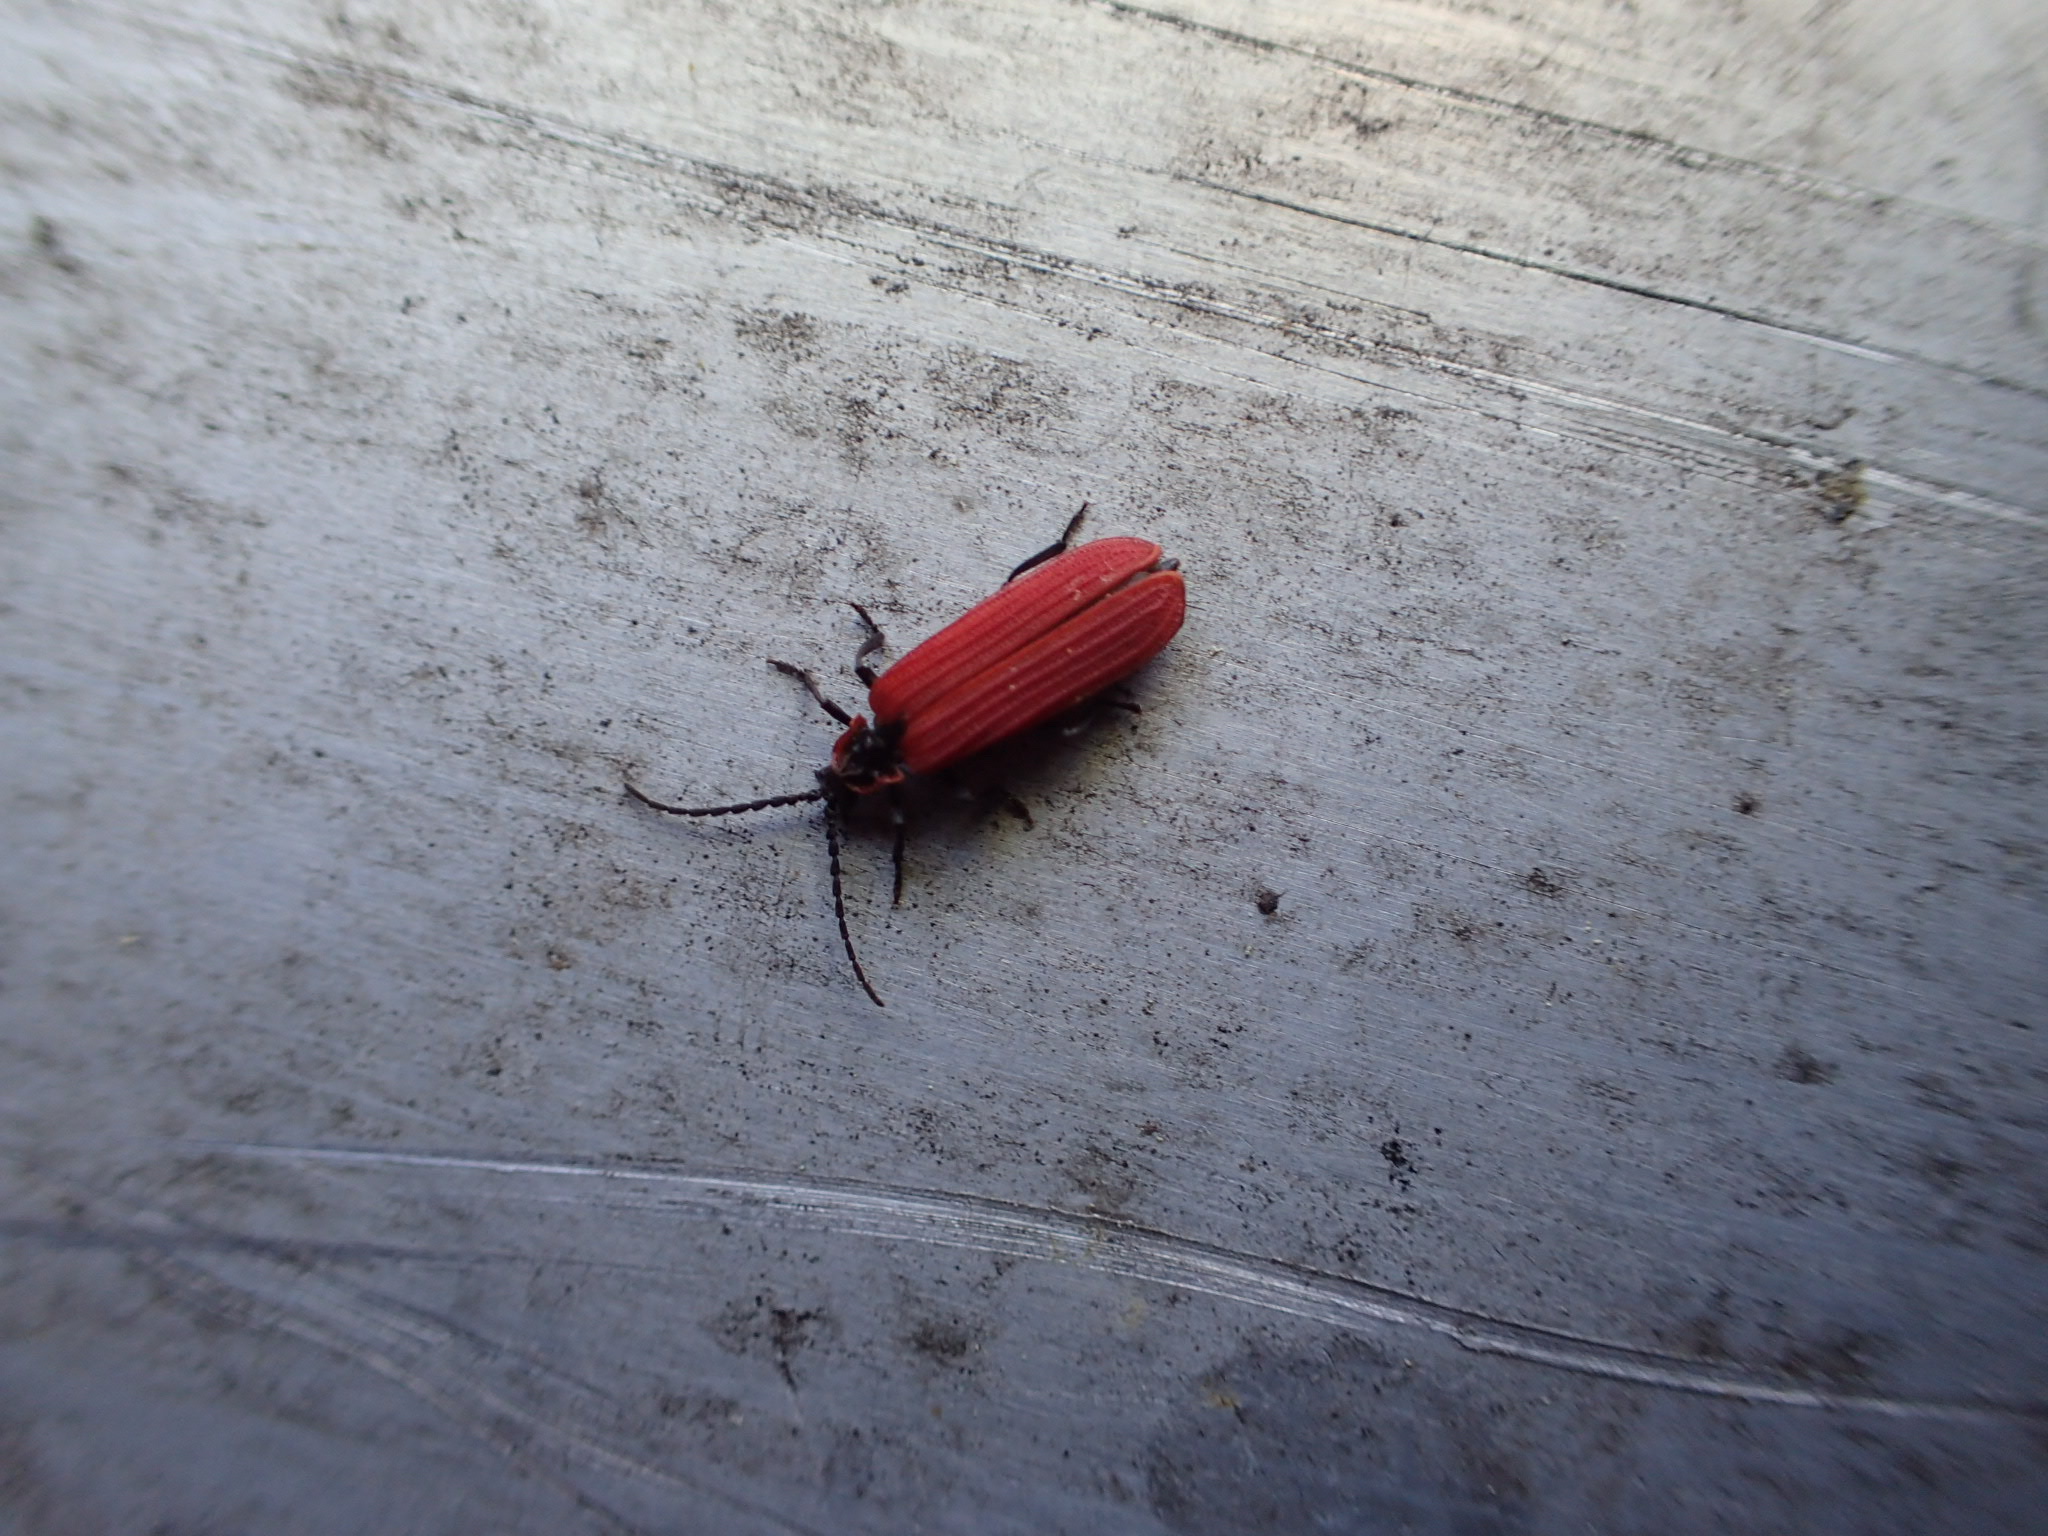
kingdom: Animalia
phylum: Arthropoda
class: Insecta
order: Coleoptera
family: Lycidae
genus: Dictyoptera
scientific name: Dictyoptera aurora
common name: Golden net-winged beetle
